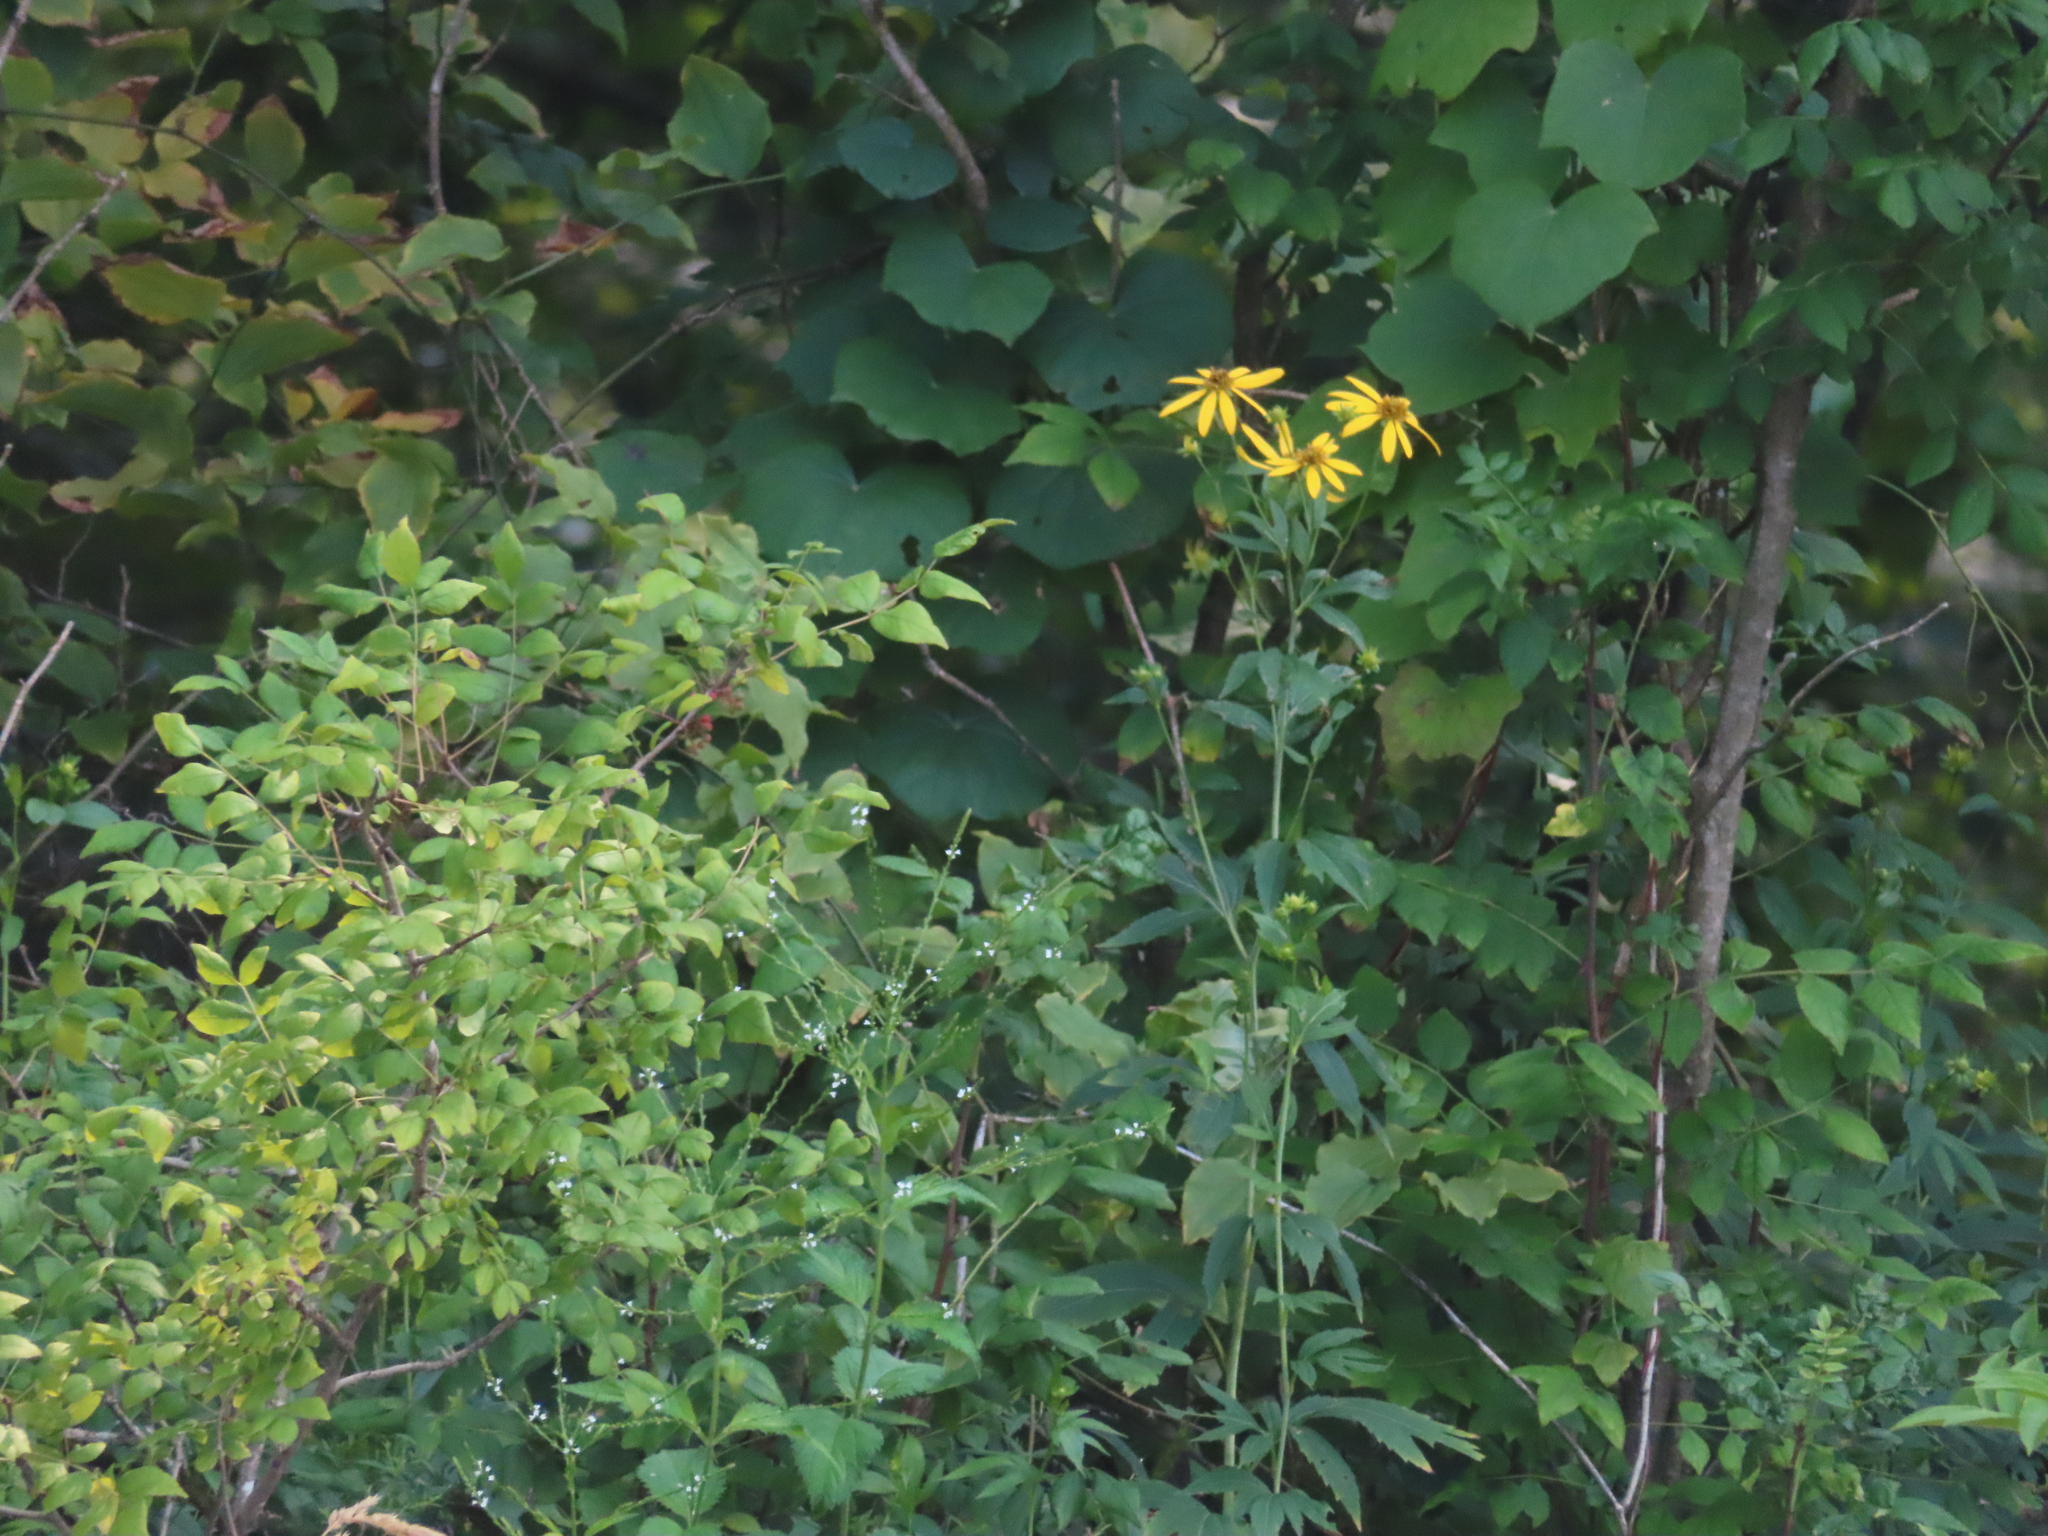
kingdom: Plantae
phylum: Tracheophyta
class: Magnoliopsida
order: Lamiales
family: Verbenaceae
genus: Verbena
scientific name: Verbena urticifolia
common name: Nettle-leaved vervain
